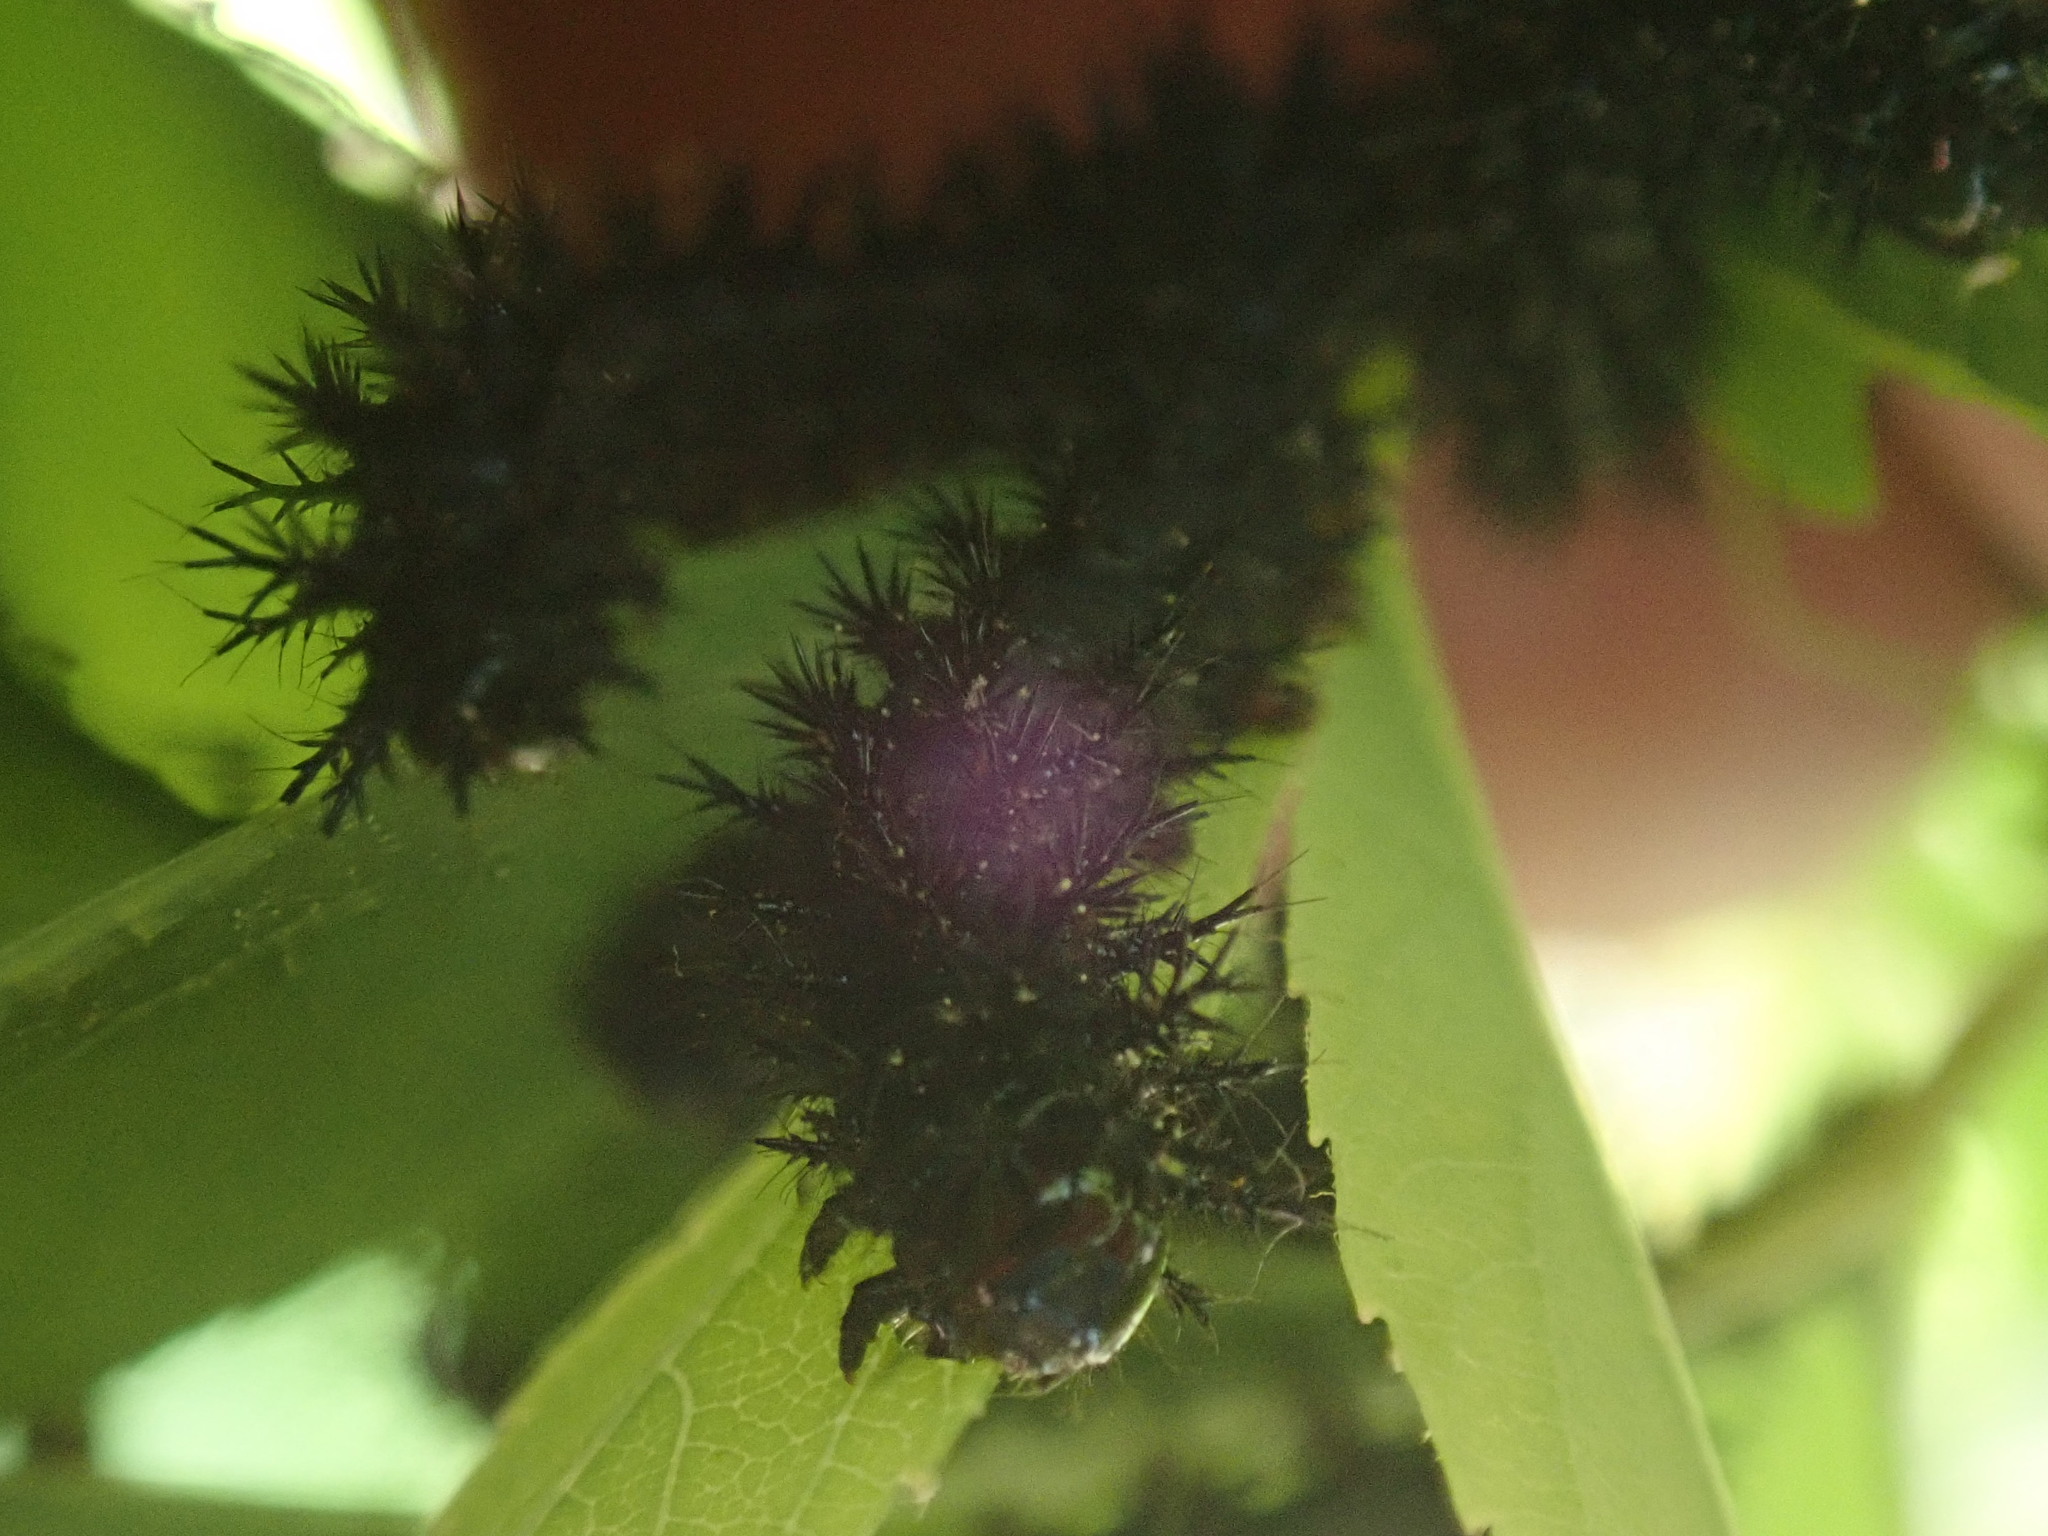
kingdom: Animalia
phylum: Arthropoda
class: Insecta
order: Lepidoptera
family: Saturniidae
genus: Hemileuca
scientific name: Hemileuca lucina
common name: New england buckmoth
